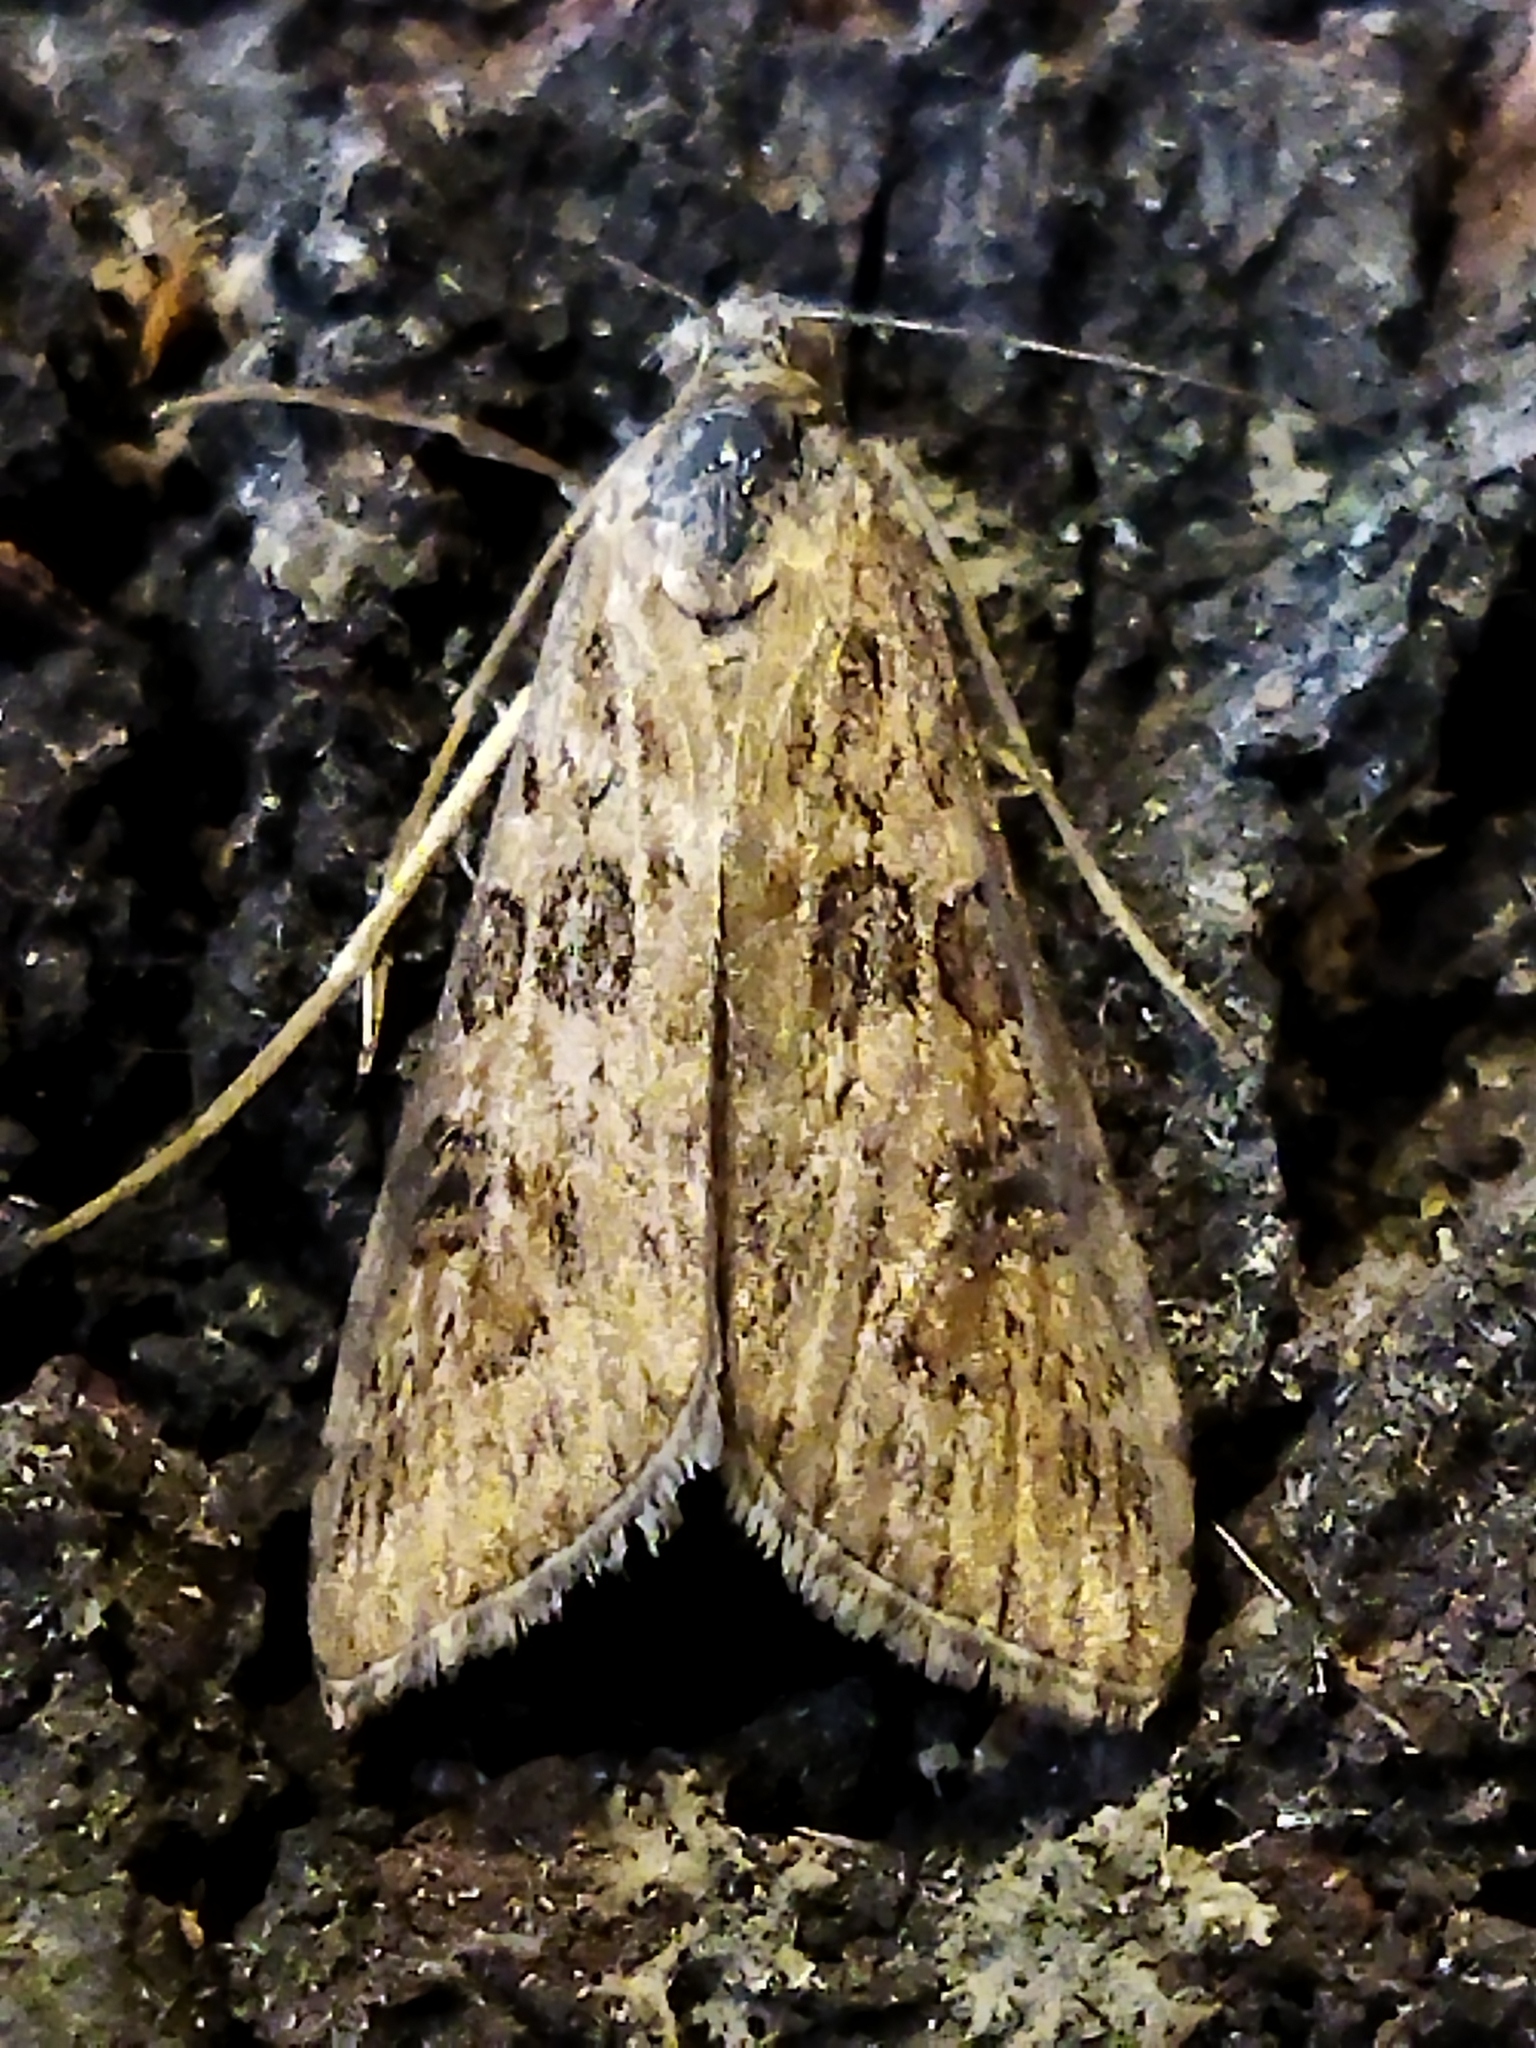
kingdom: Animalia
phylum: Arthropoda
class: Insecta
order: Lepidoptera
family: Crambidae
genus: Nomophila
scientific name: Nomophila noctuella
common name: Rush veneer
